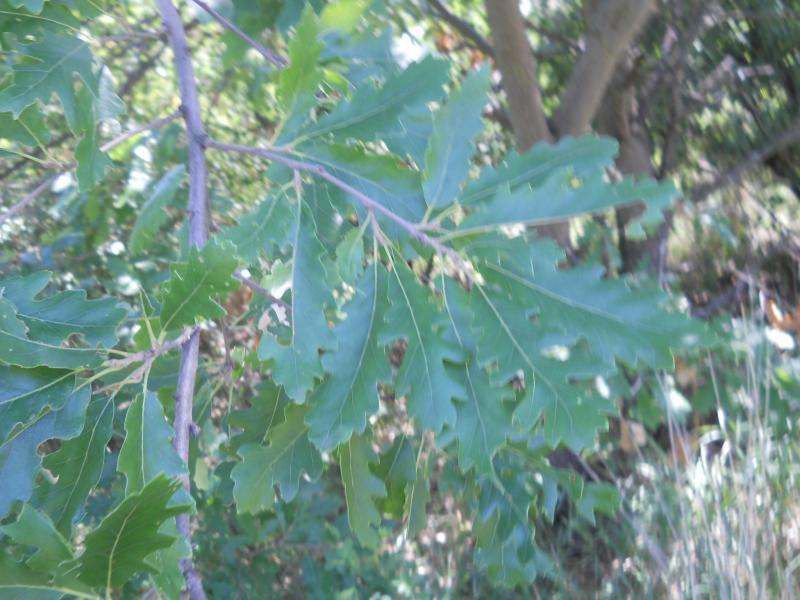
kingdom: Plantae
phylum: Tracheophyta
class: Magnoliopsida
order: Fagales
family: Fagaceae
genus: Quercus
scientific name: Quercus cerris
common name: Turkey oak
